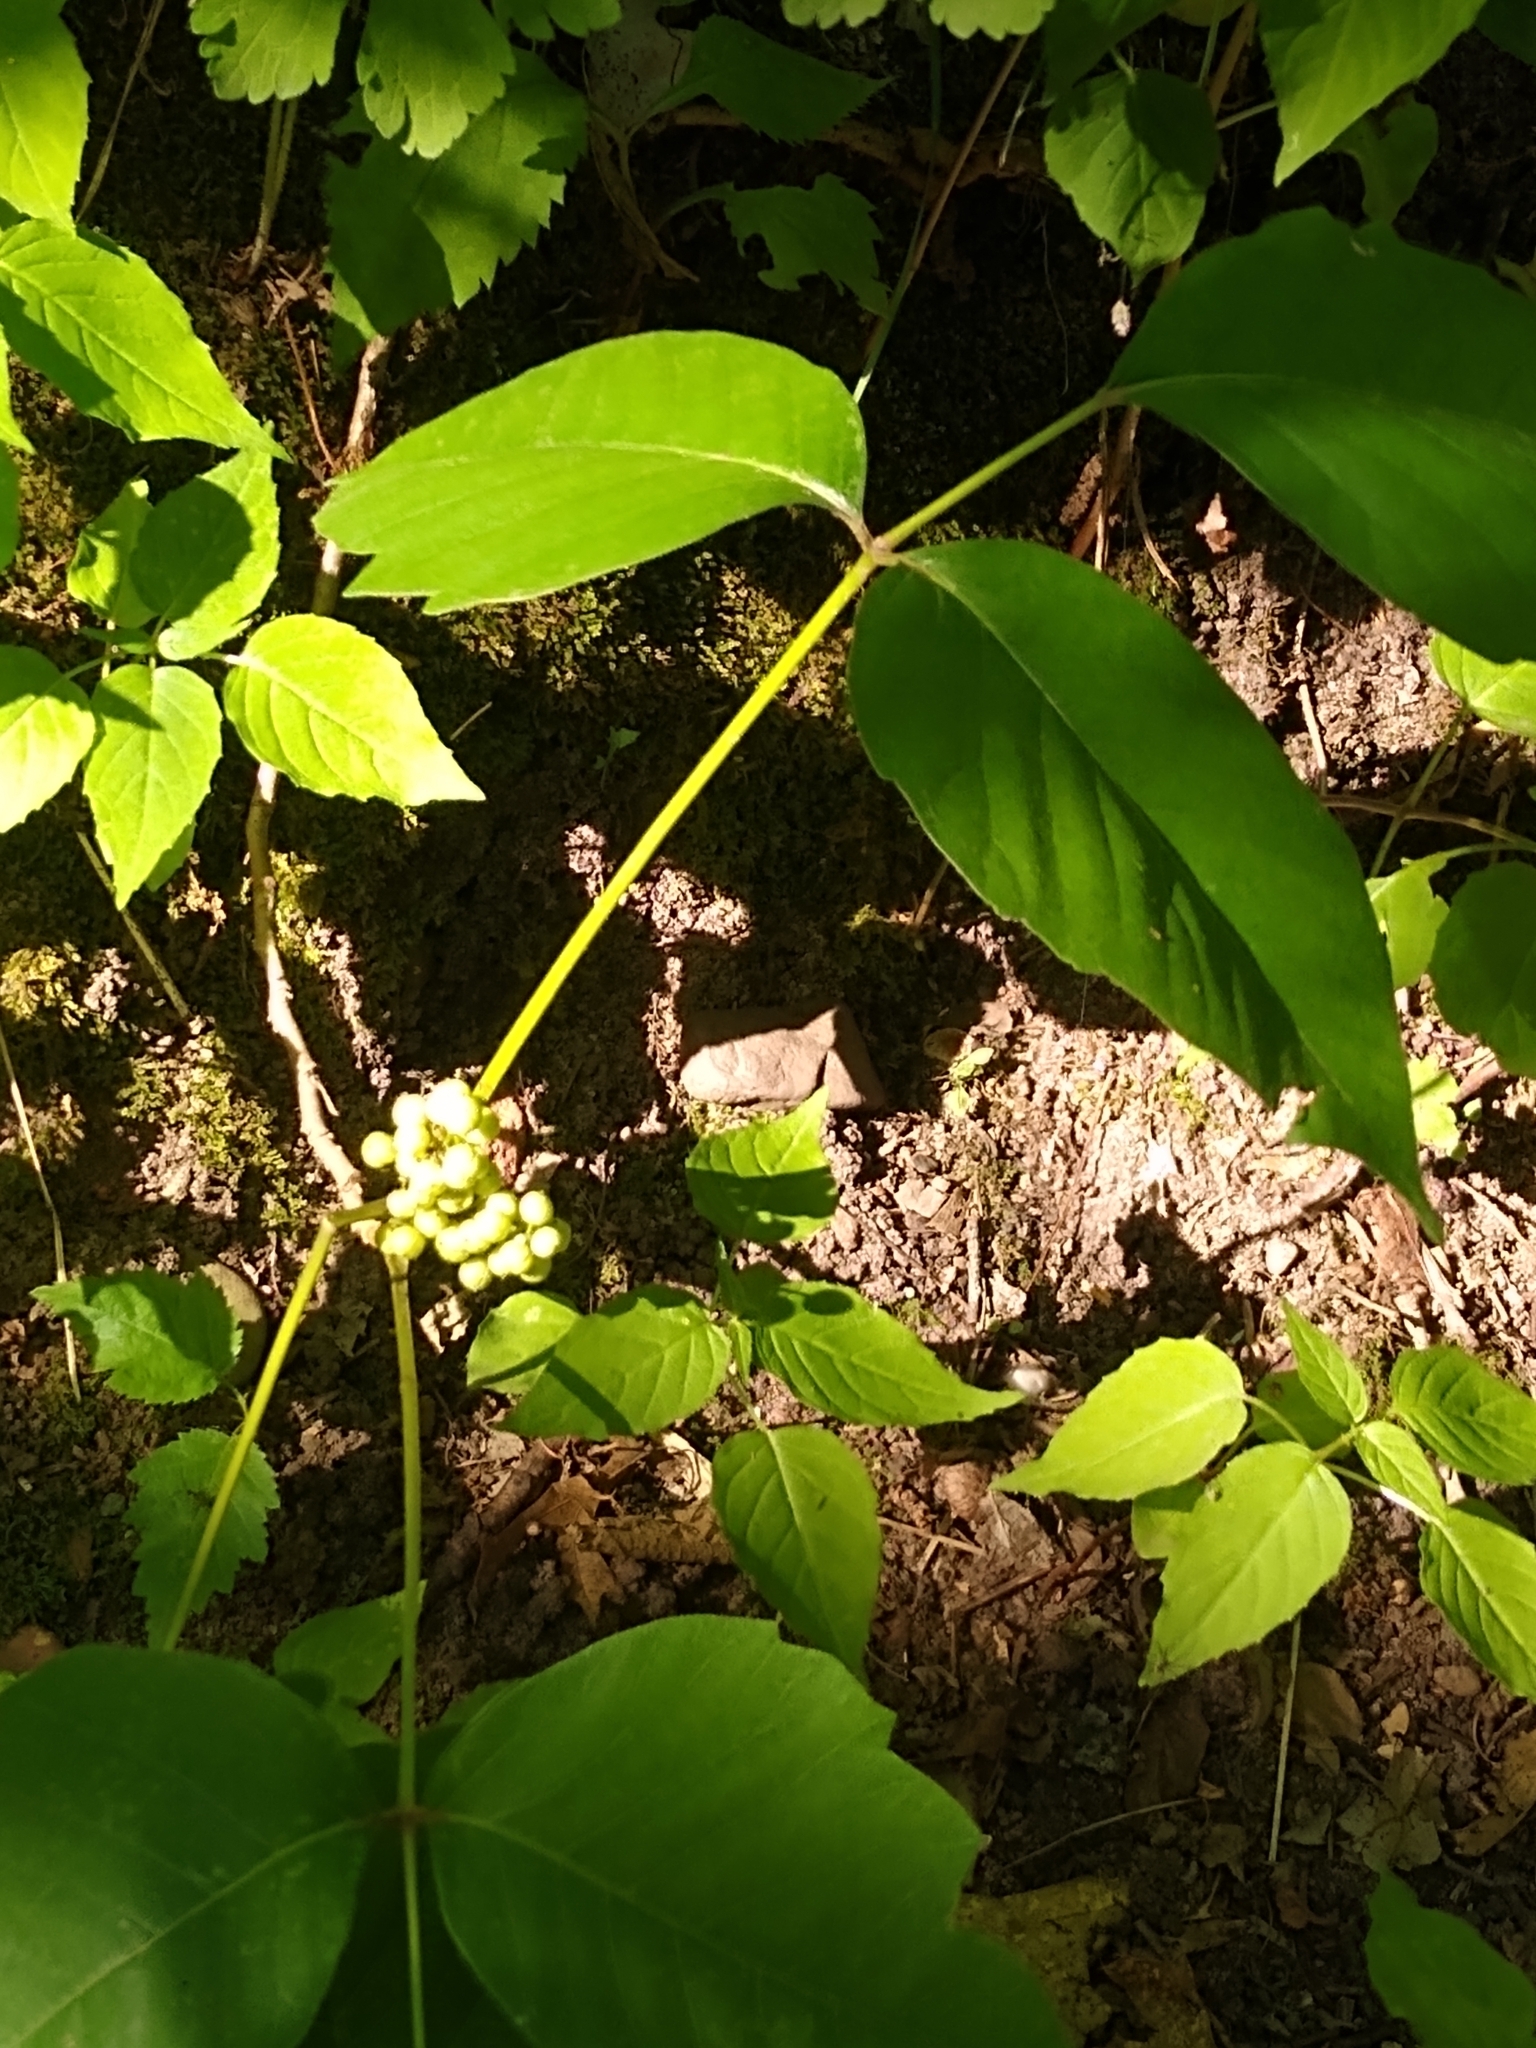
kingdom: Plantae
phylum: Tracheophyta
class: Magnoliopsida
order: Sapindales
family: Anacardiaceae
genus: Toxicodendron
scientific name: Toxicodendron rydbergii
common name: Rydberg's poison-ivy
